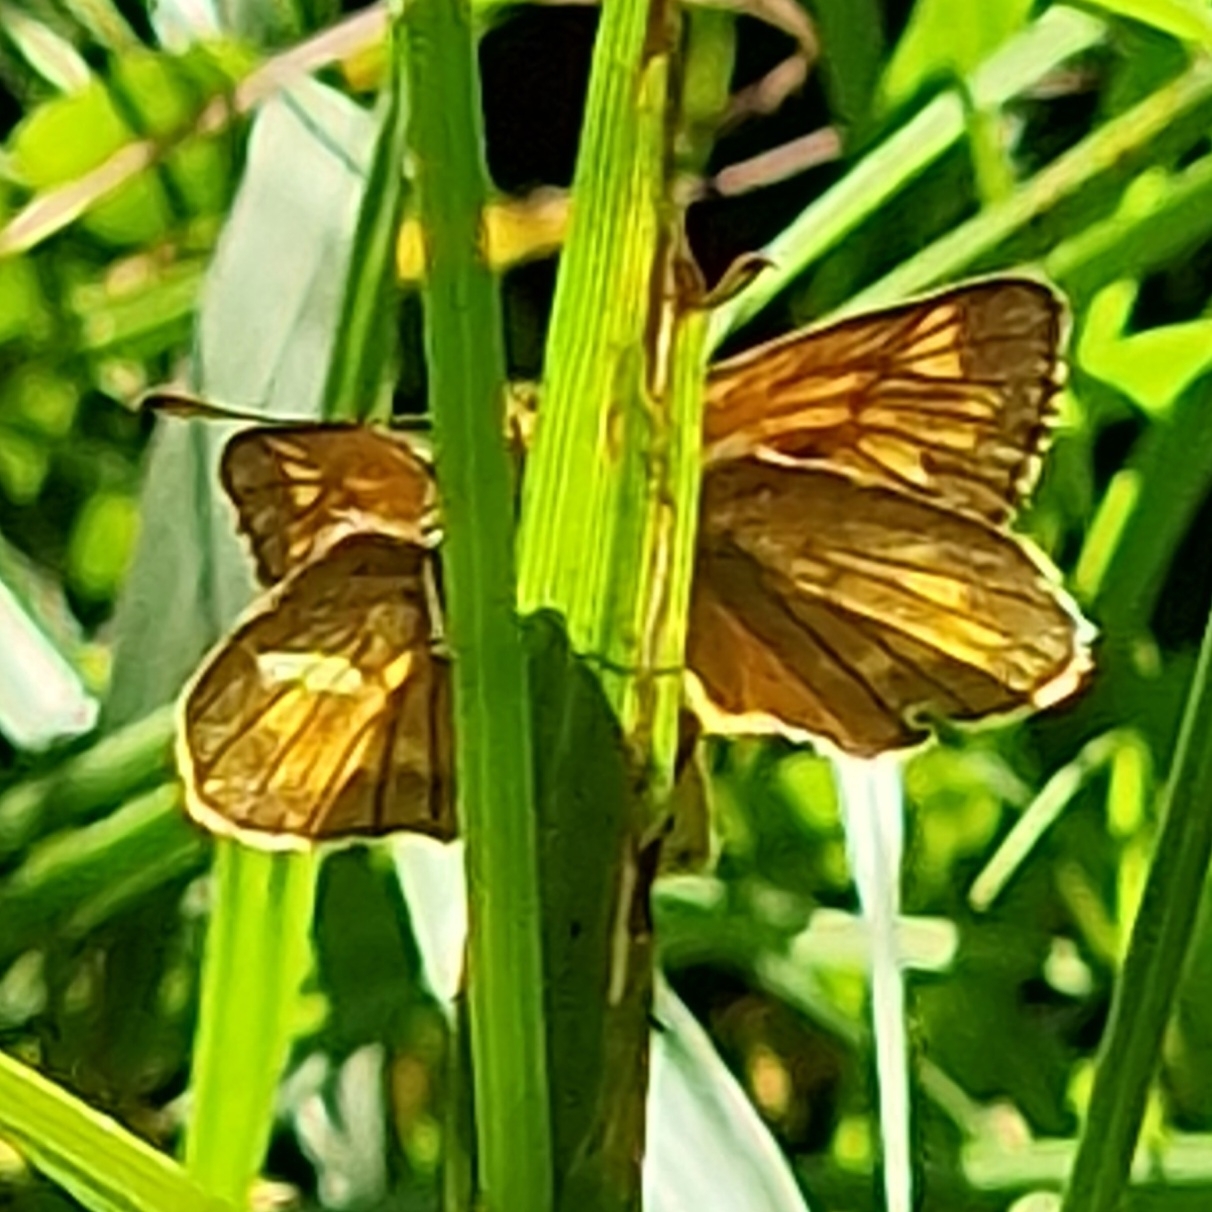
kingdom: Animalia
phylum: Arthropoda
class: Insecta
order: Lepidoptera
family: Hesperiidae
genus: Ochlodes
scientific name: Ochlodes venata
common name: Large skipper
